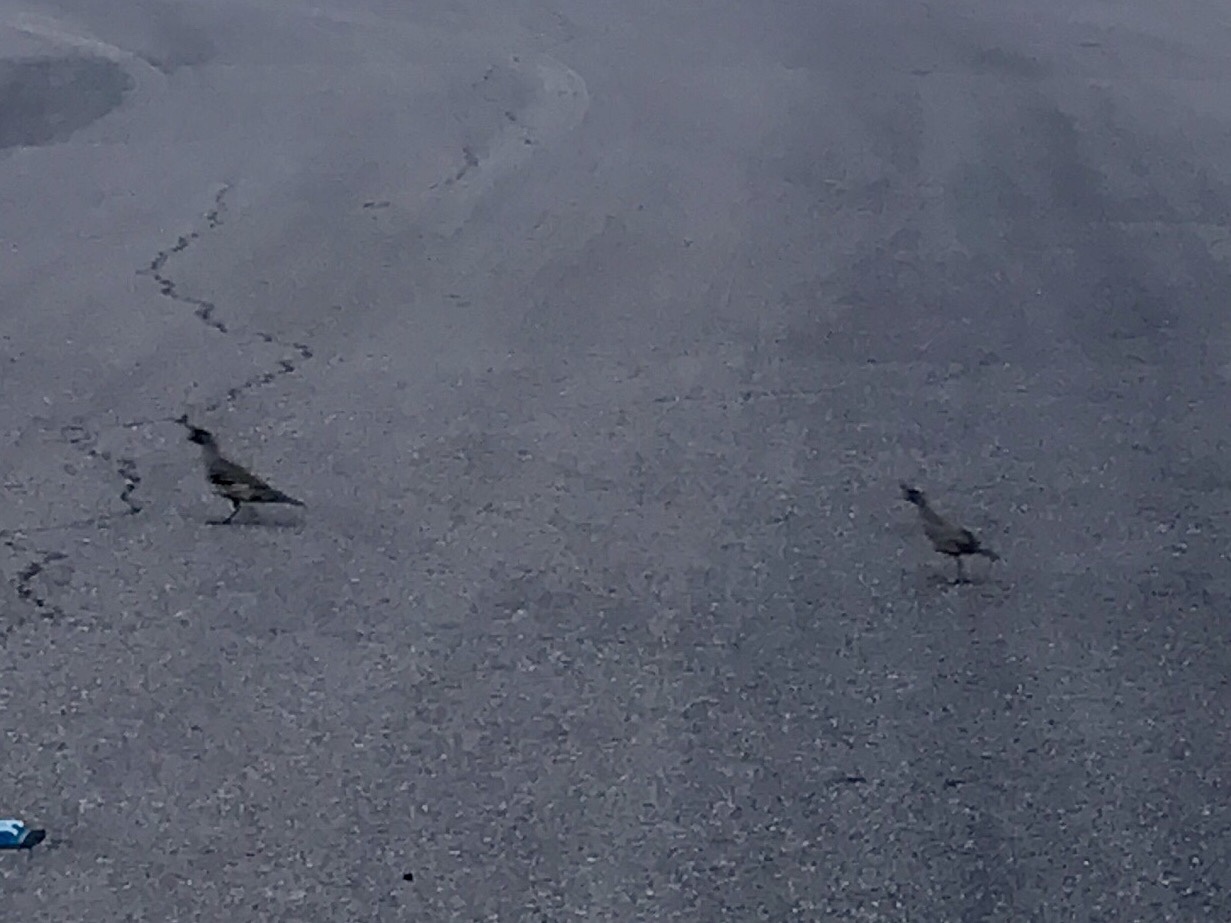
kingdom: Animalia
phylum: Chordata
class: Aves
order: Galliformes
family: Odontophoridae
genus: Callipepla
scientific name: Callipepla gambelii
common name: Gambel's quail
